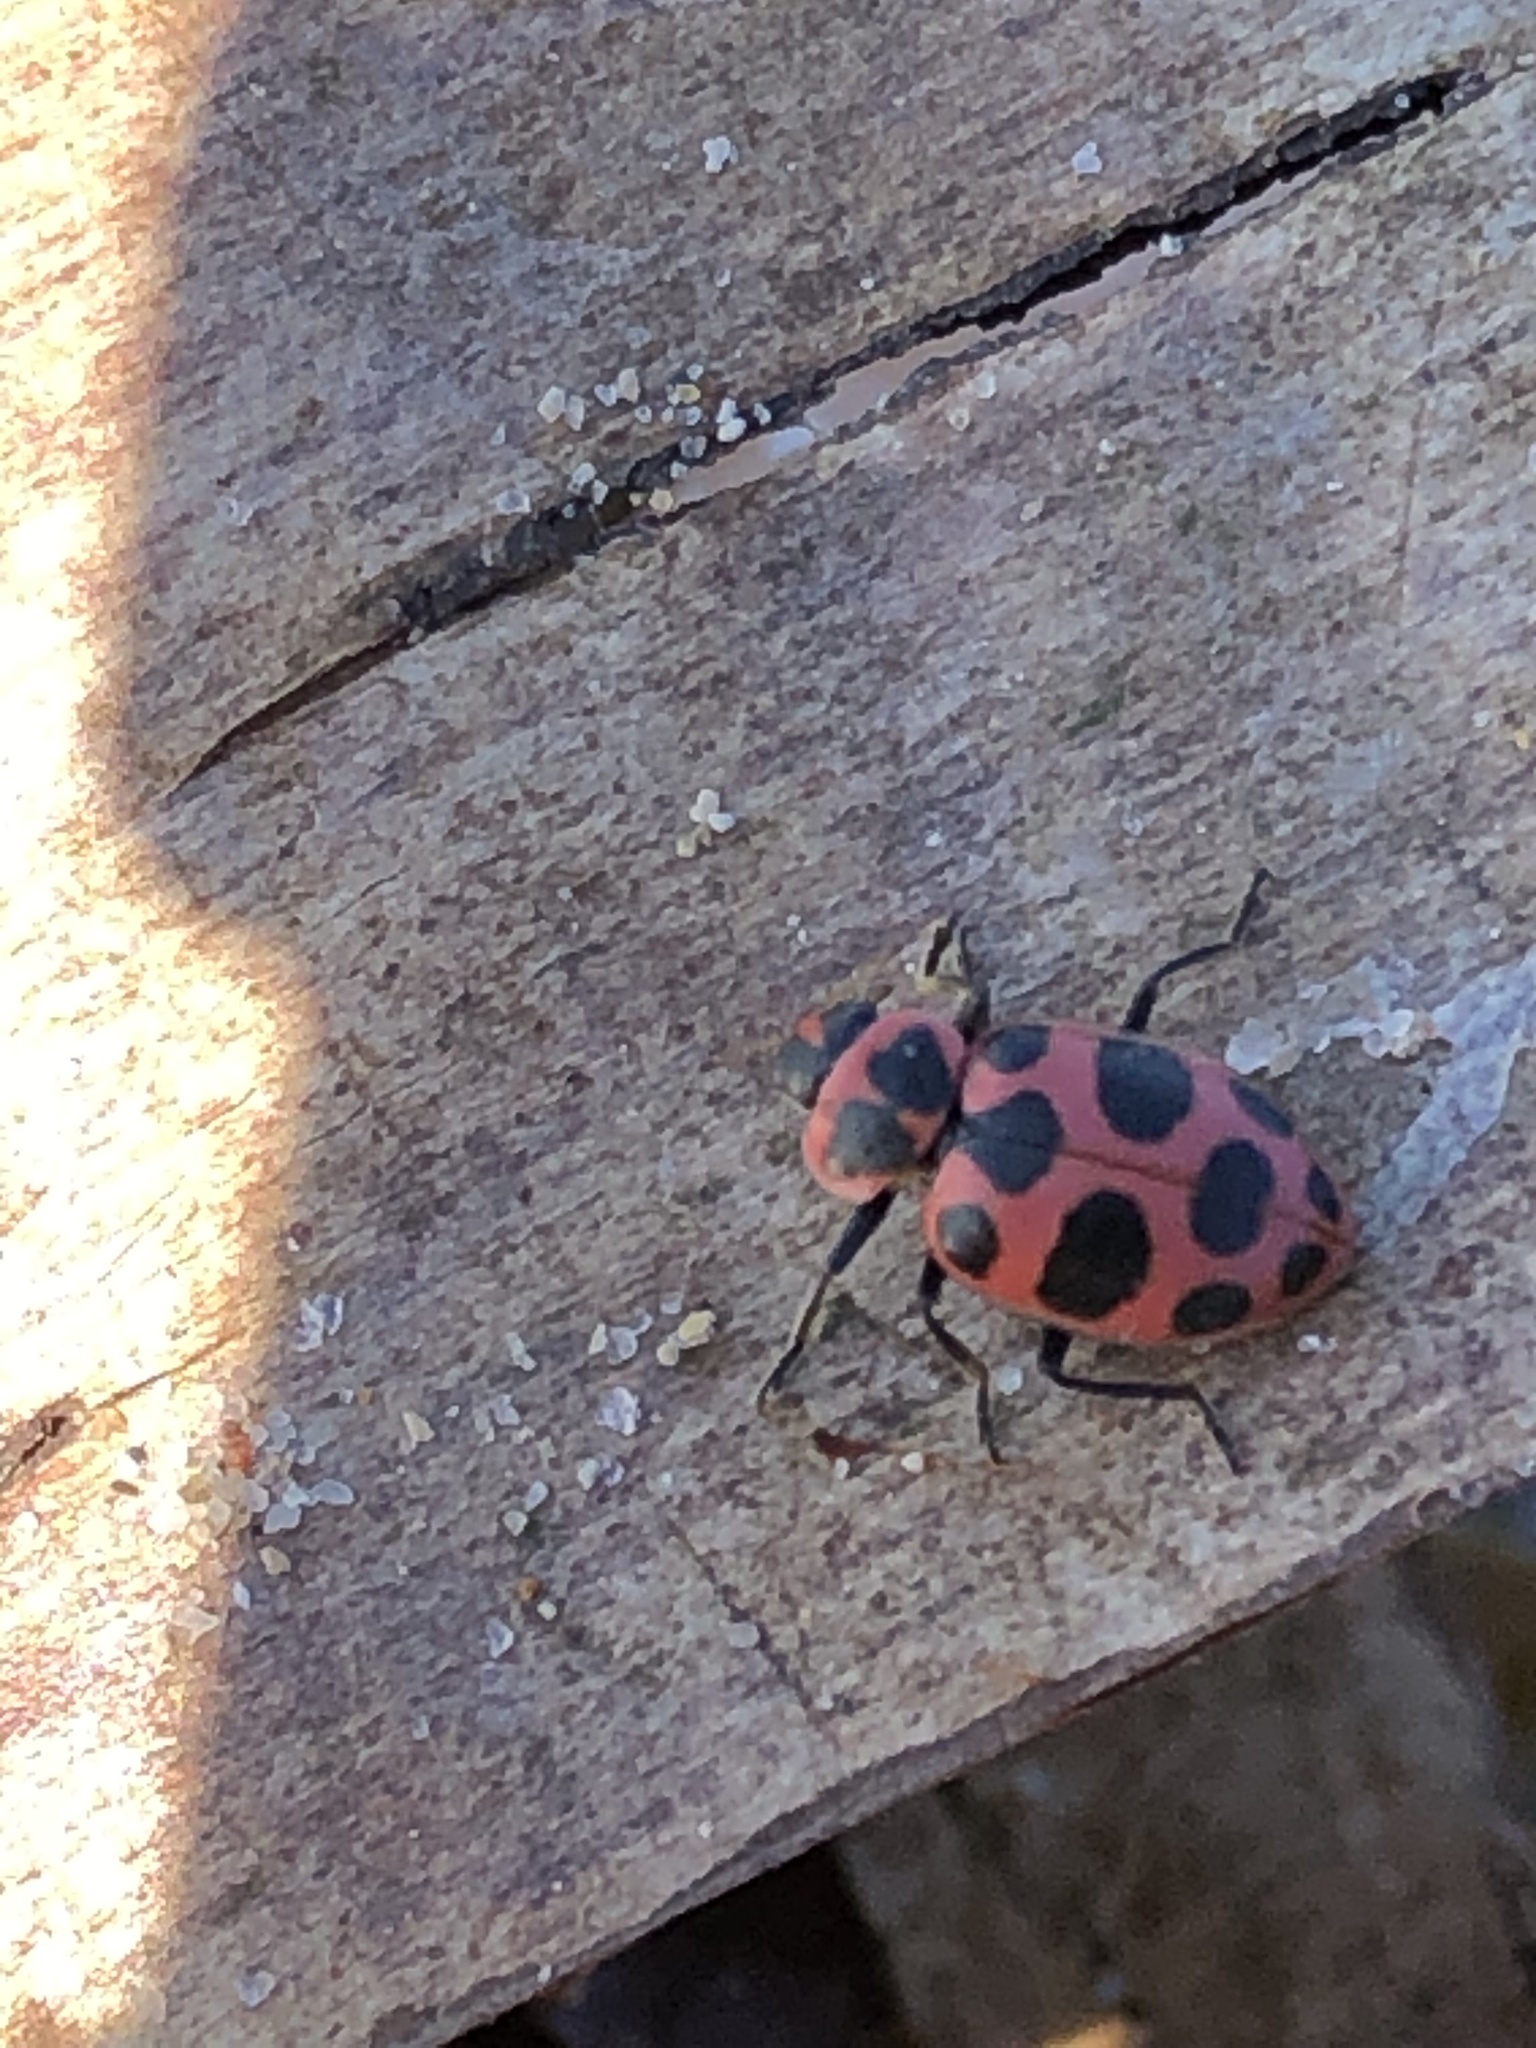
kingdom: Animalia
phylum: Arthropoda
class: Insecta
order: Coleoptera
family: Coccinellidae
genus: Coleomegilla
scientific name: Coleomegilla maculata
